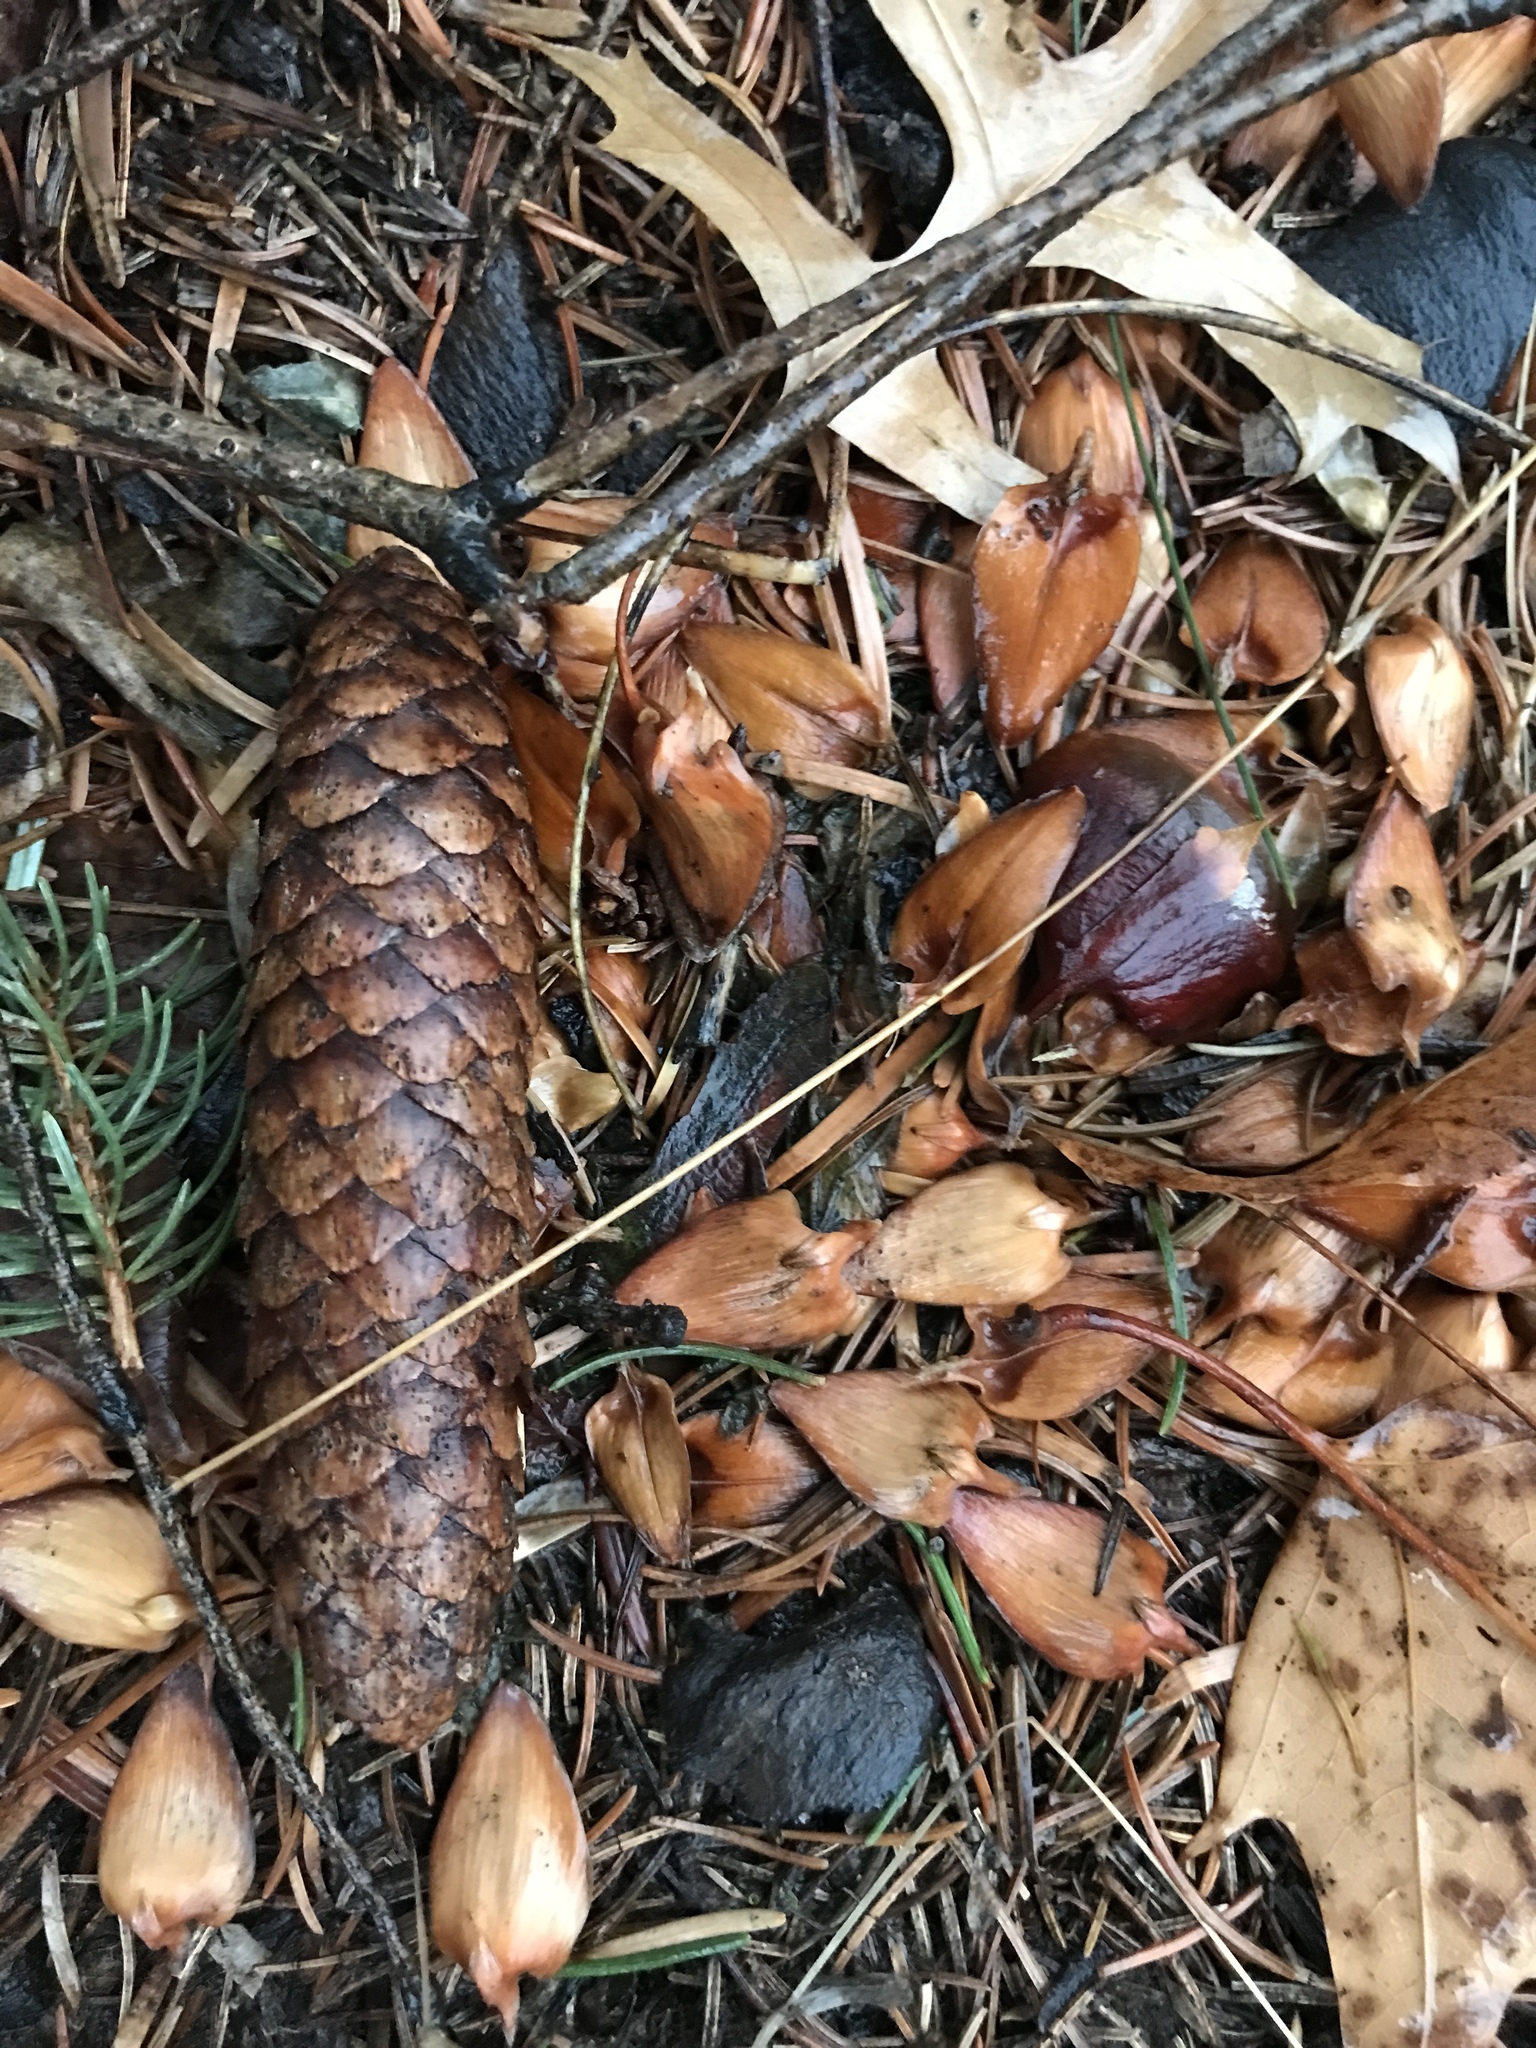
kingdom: Plantae
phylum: Tracheophyta
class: Pinopsida
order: Pinales
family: Pinaceae
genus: Picea
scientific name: Picea abies
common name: Norway spruce
